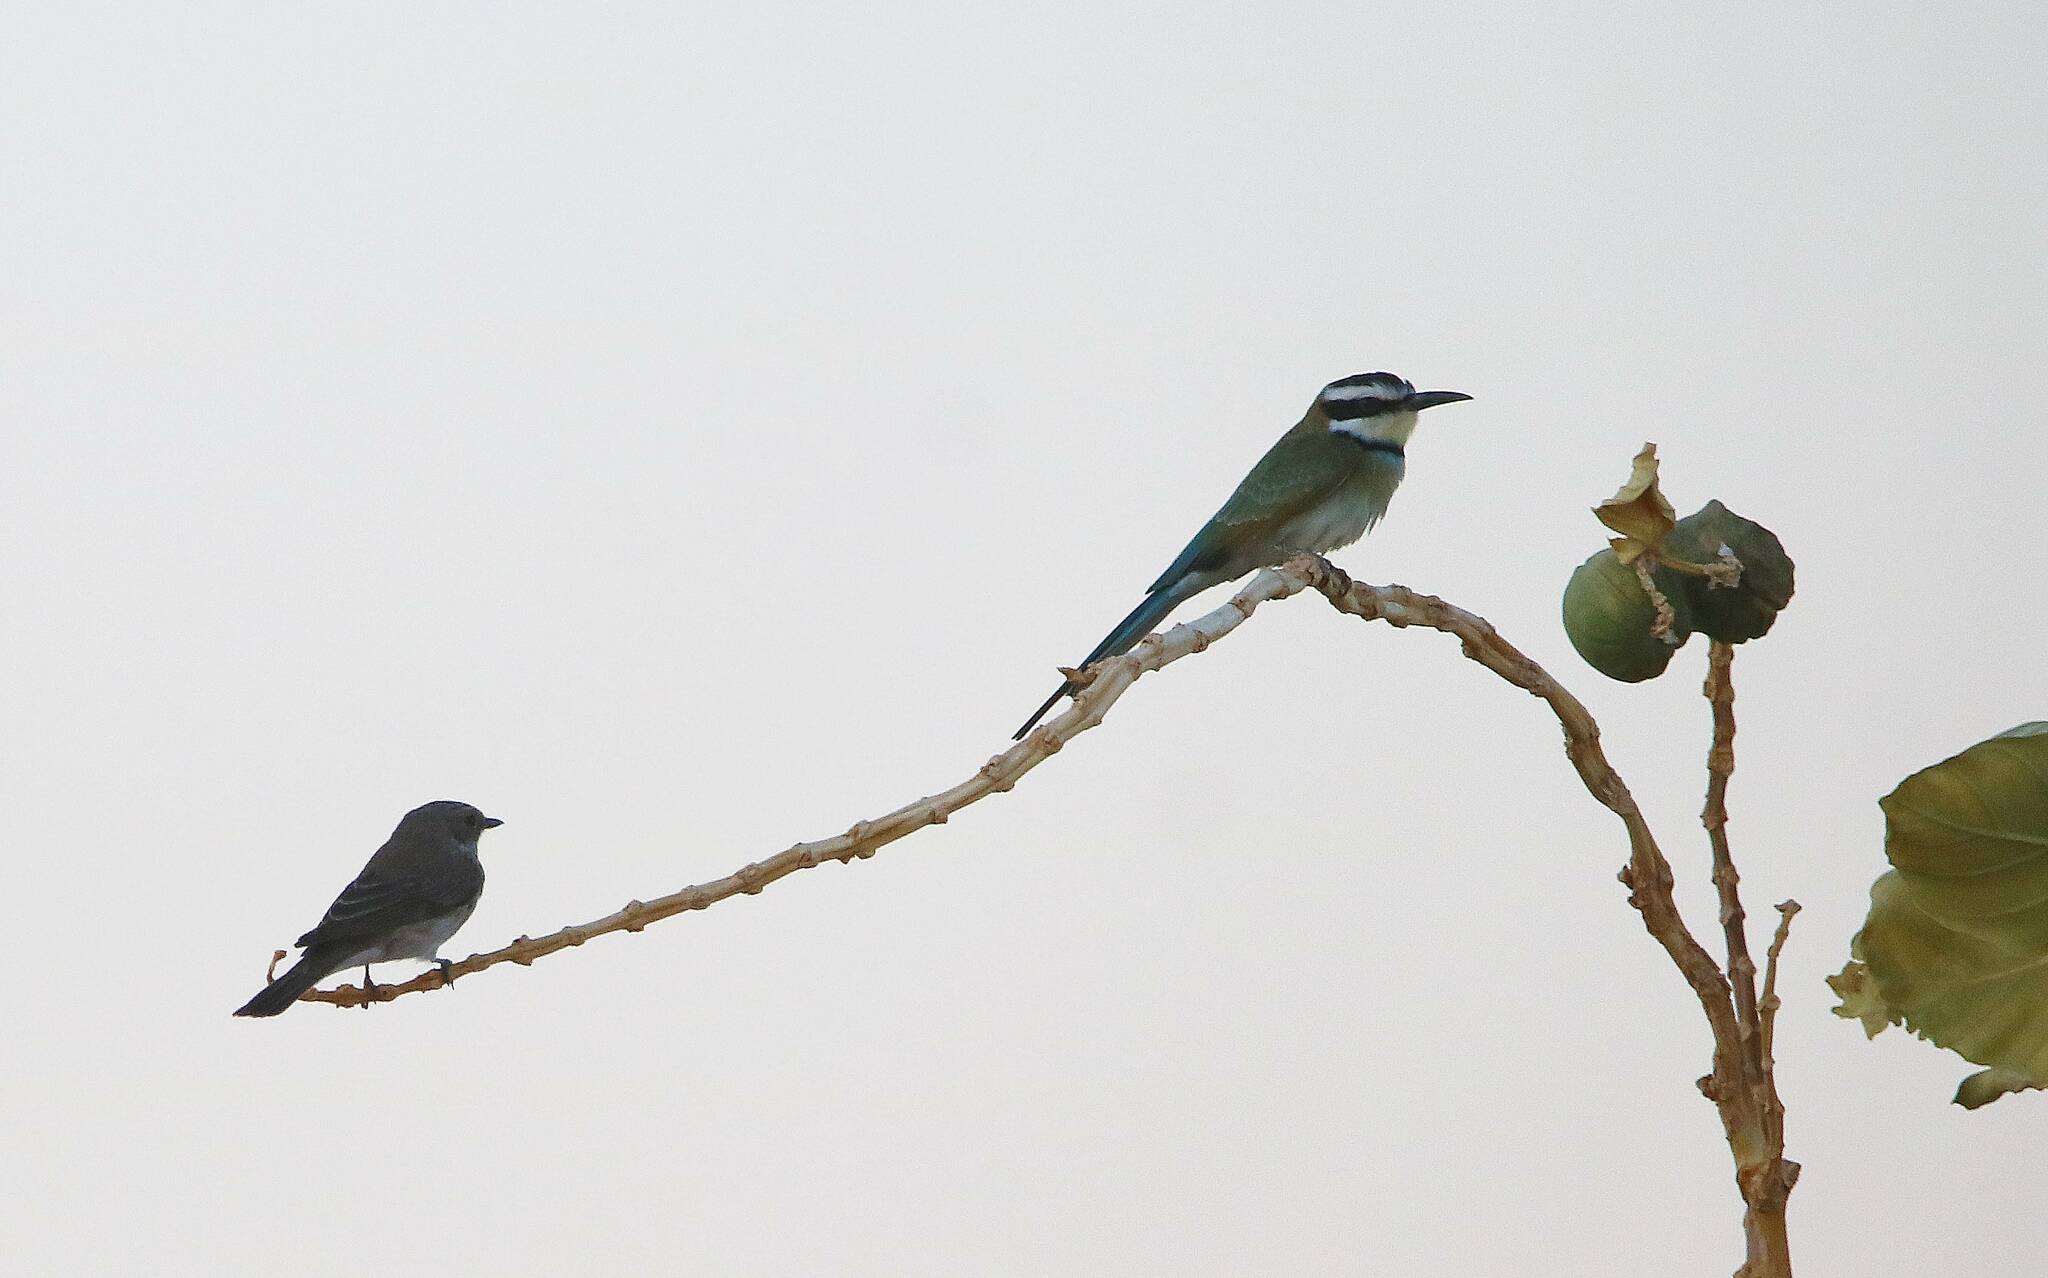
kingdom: Animalia
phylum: Chordata
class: Aves
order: Coraciiformes
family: Meropidae
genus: Merops
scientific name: Merops albicollis
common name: White-throated bee-eater
